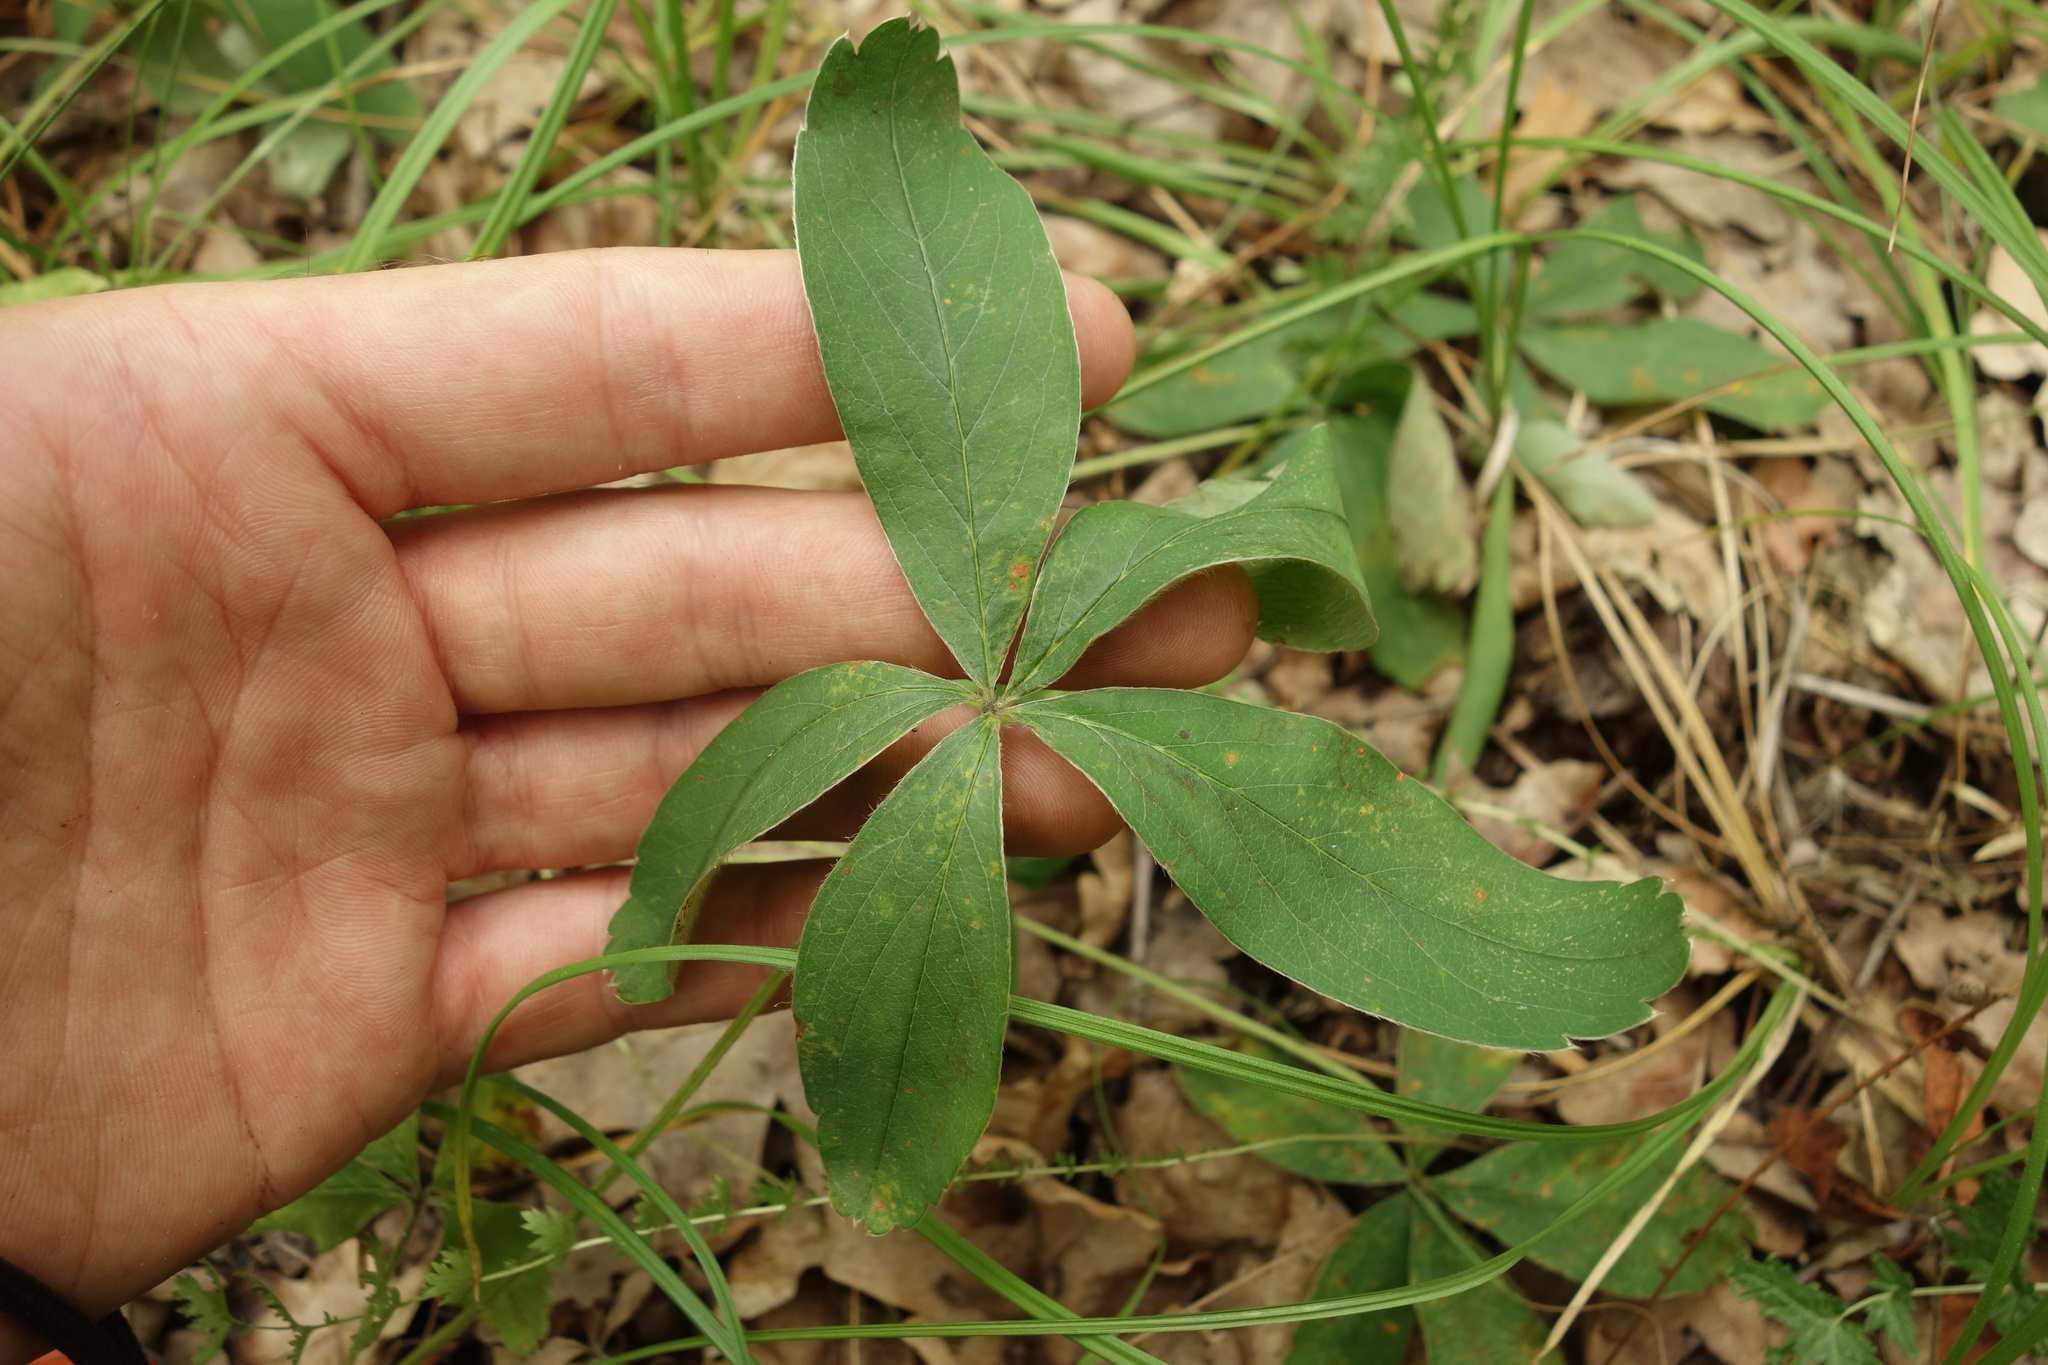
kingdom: Plantae
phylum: Tracheophyta
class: Magnoliopsida
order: Rosales
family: Rosaceae
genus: Potentilla
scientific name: Potentilla alba
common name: White cinquefoil
